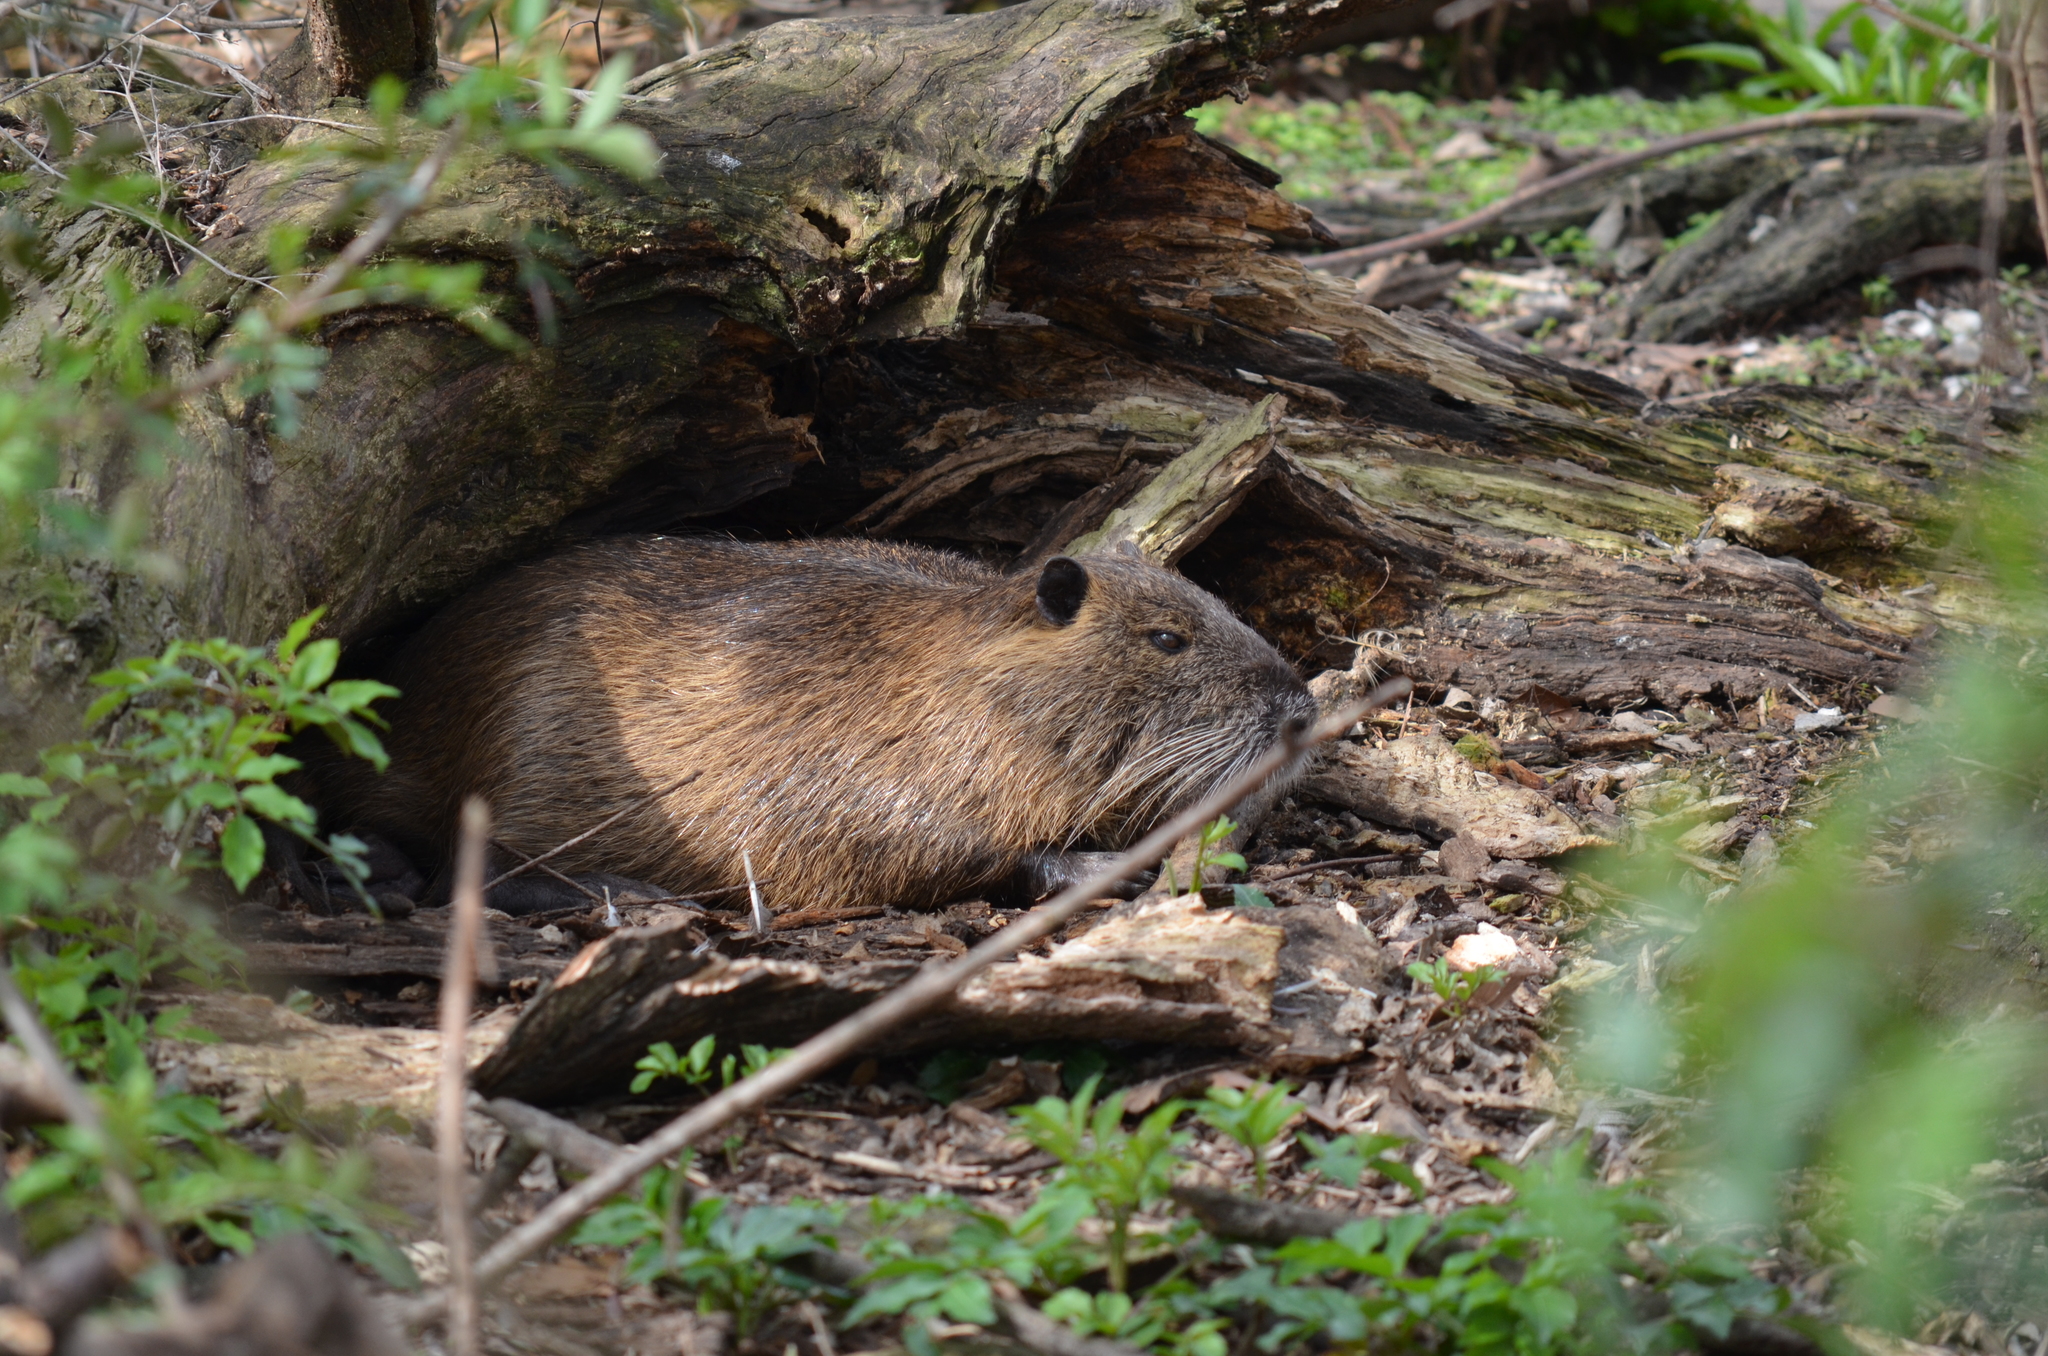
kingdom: Animalia
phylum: Chordata
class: Mammalia
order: Rodentia
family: Myocastoridae
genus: Myocastor
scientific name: Myocastor coypus
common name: Coypu
